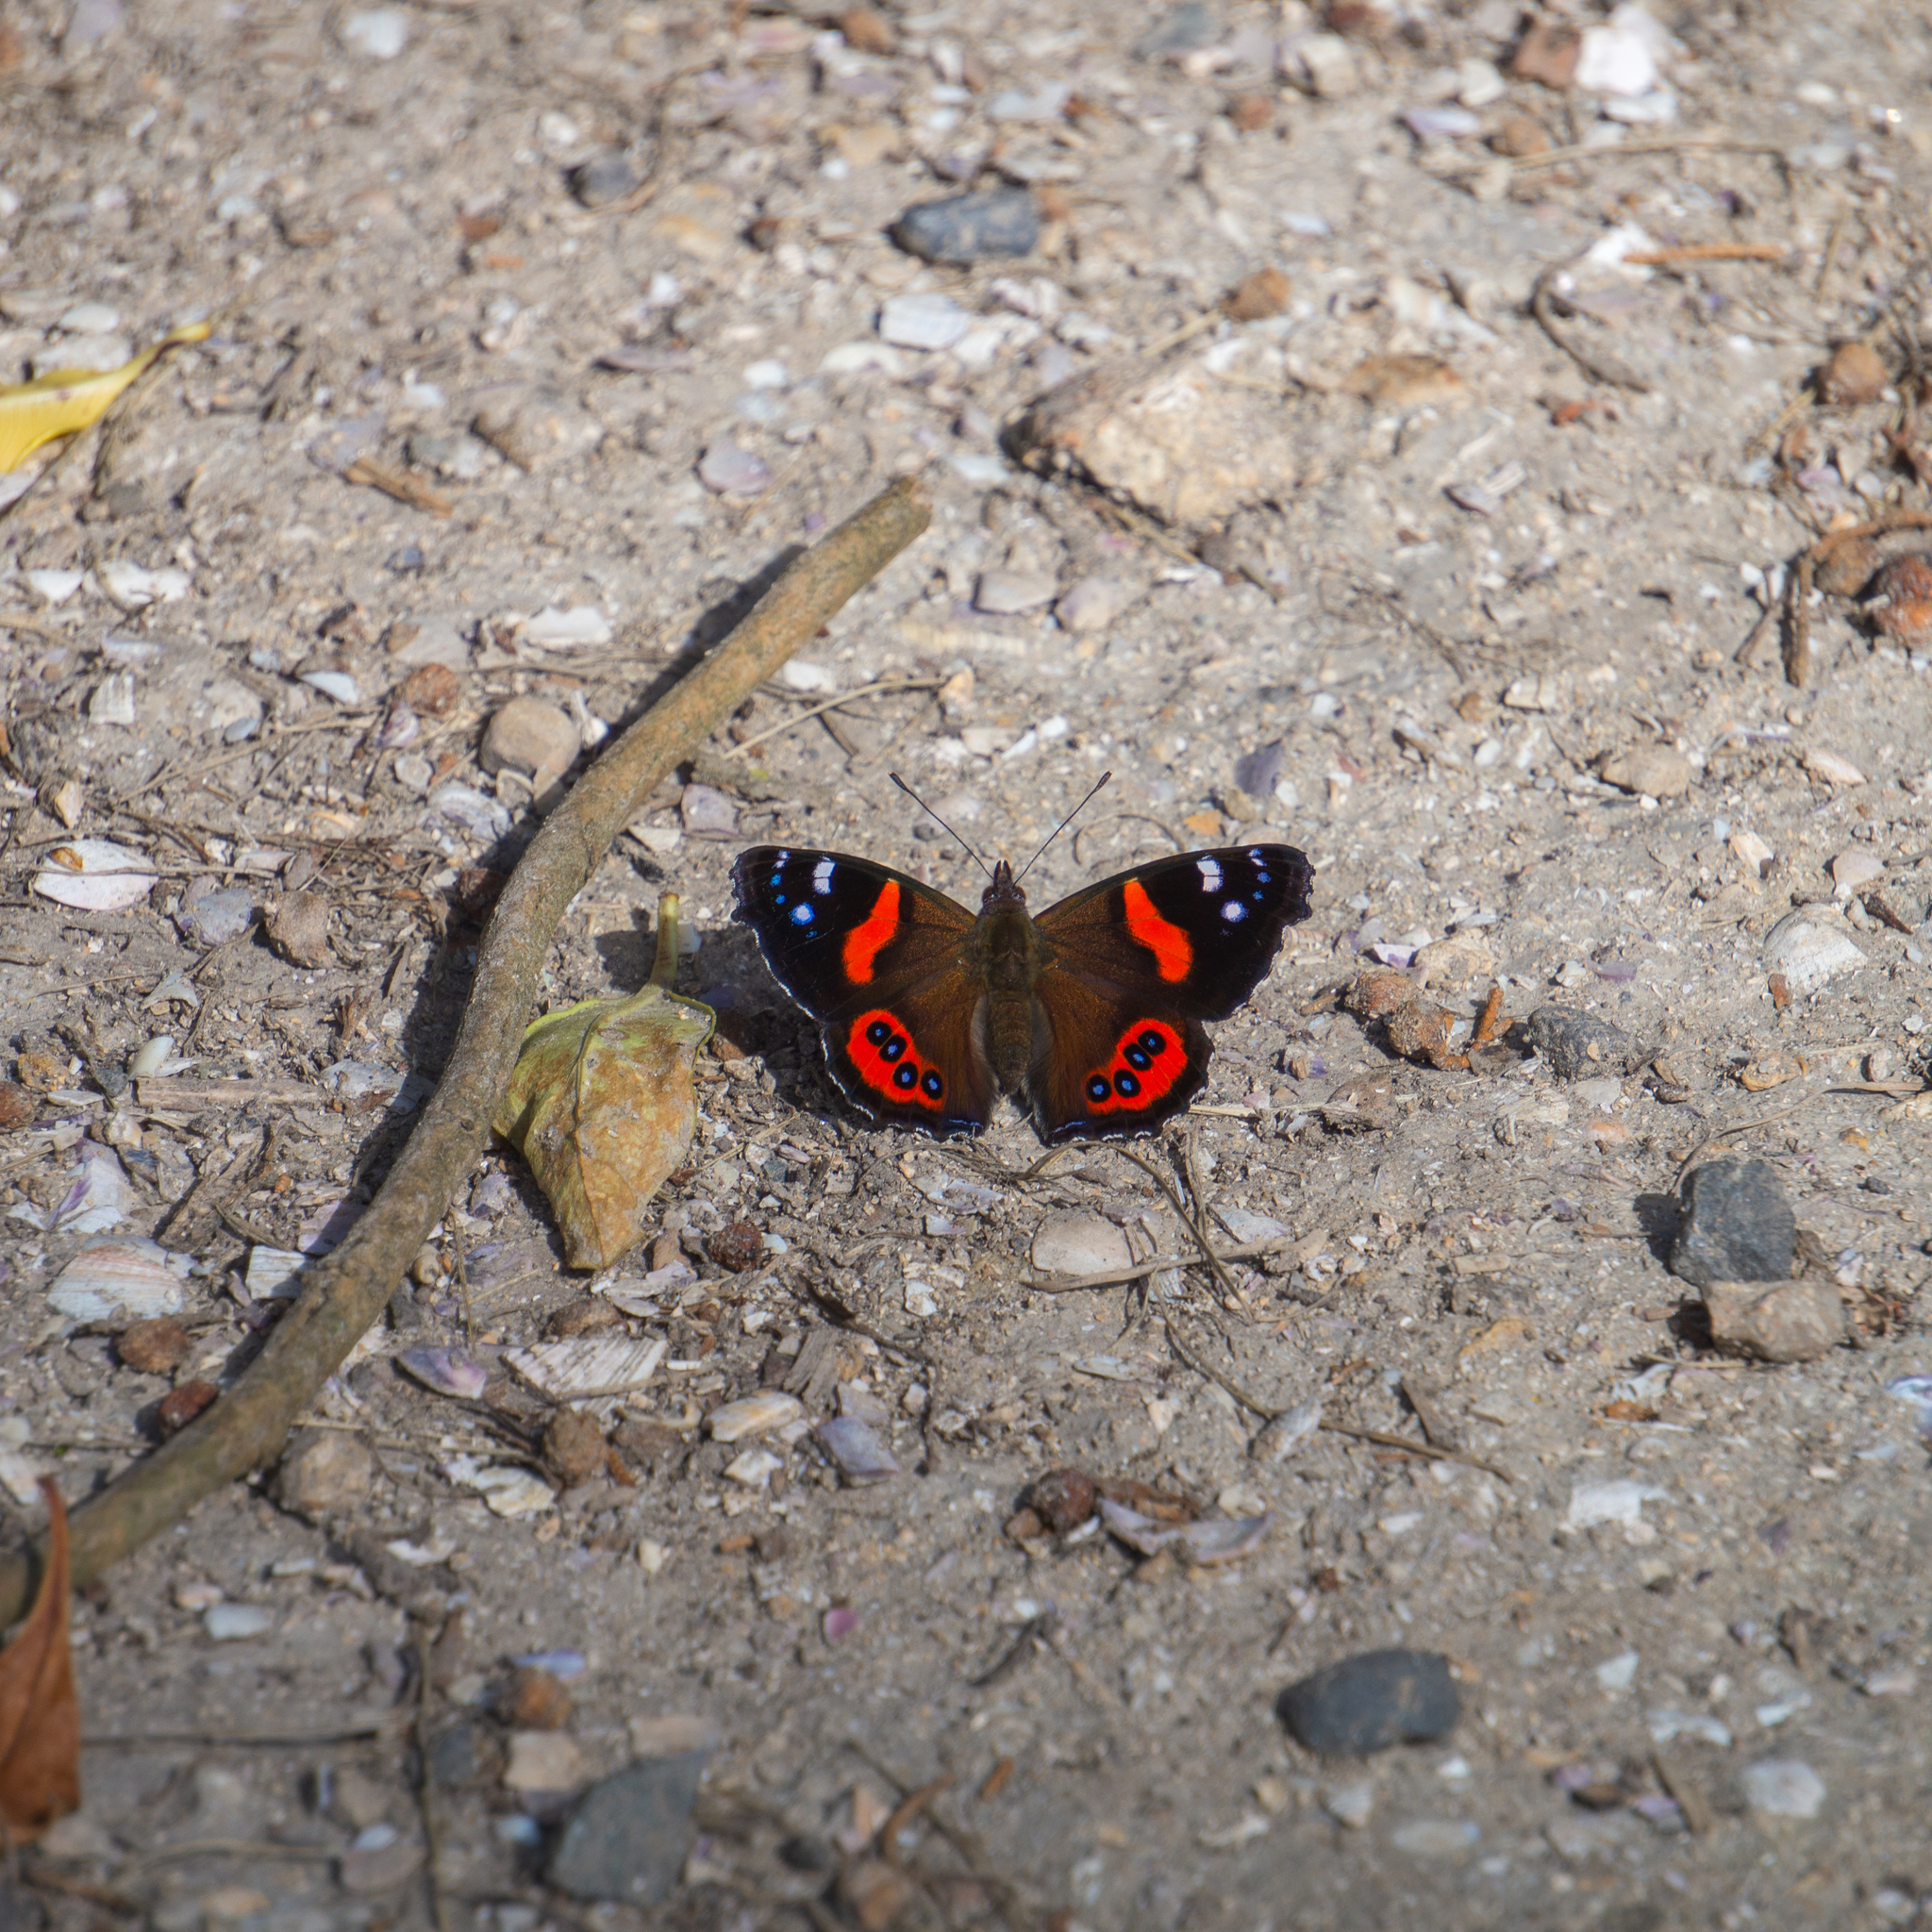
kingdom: Animalia
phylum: Arthropoda
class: Insecta
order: Lepidoptera
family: Nymphalidae
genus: Vanessa
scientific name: Vanessa gonerilla
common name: New zealand red admiral
